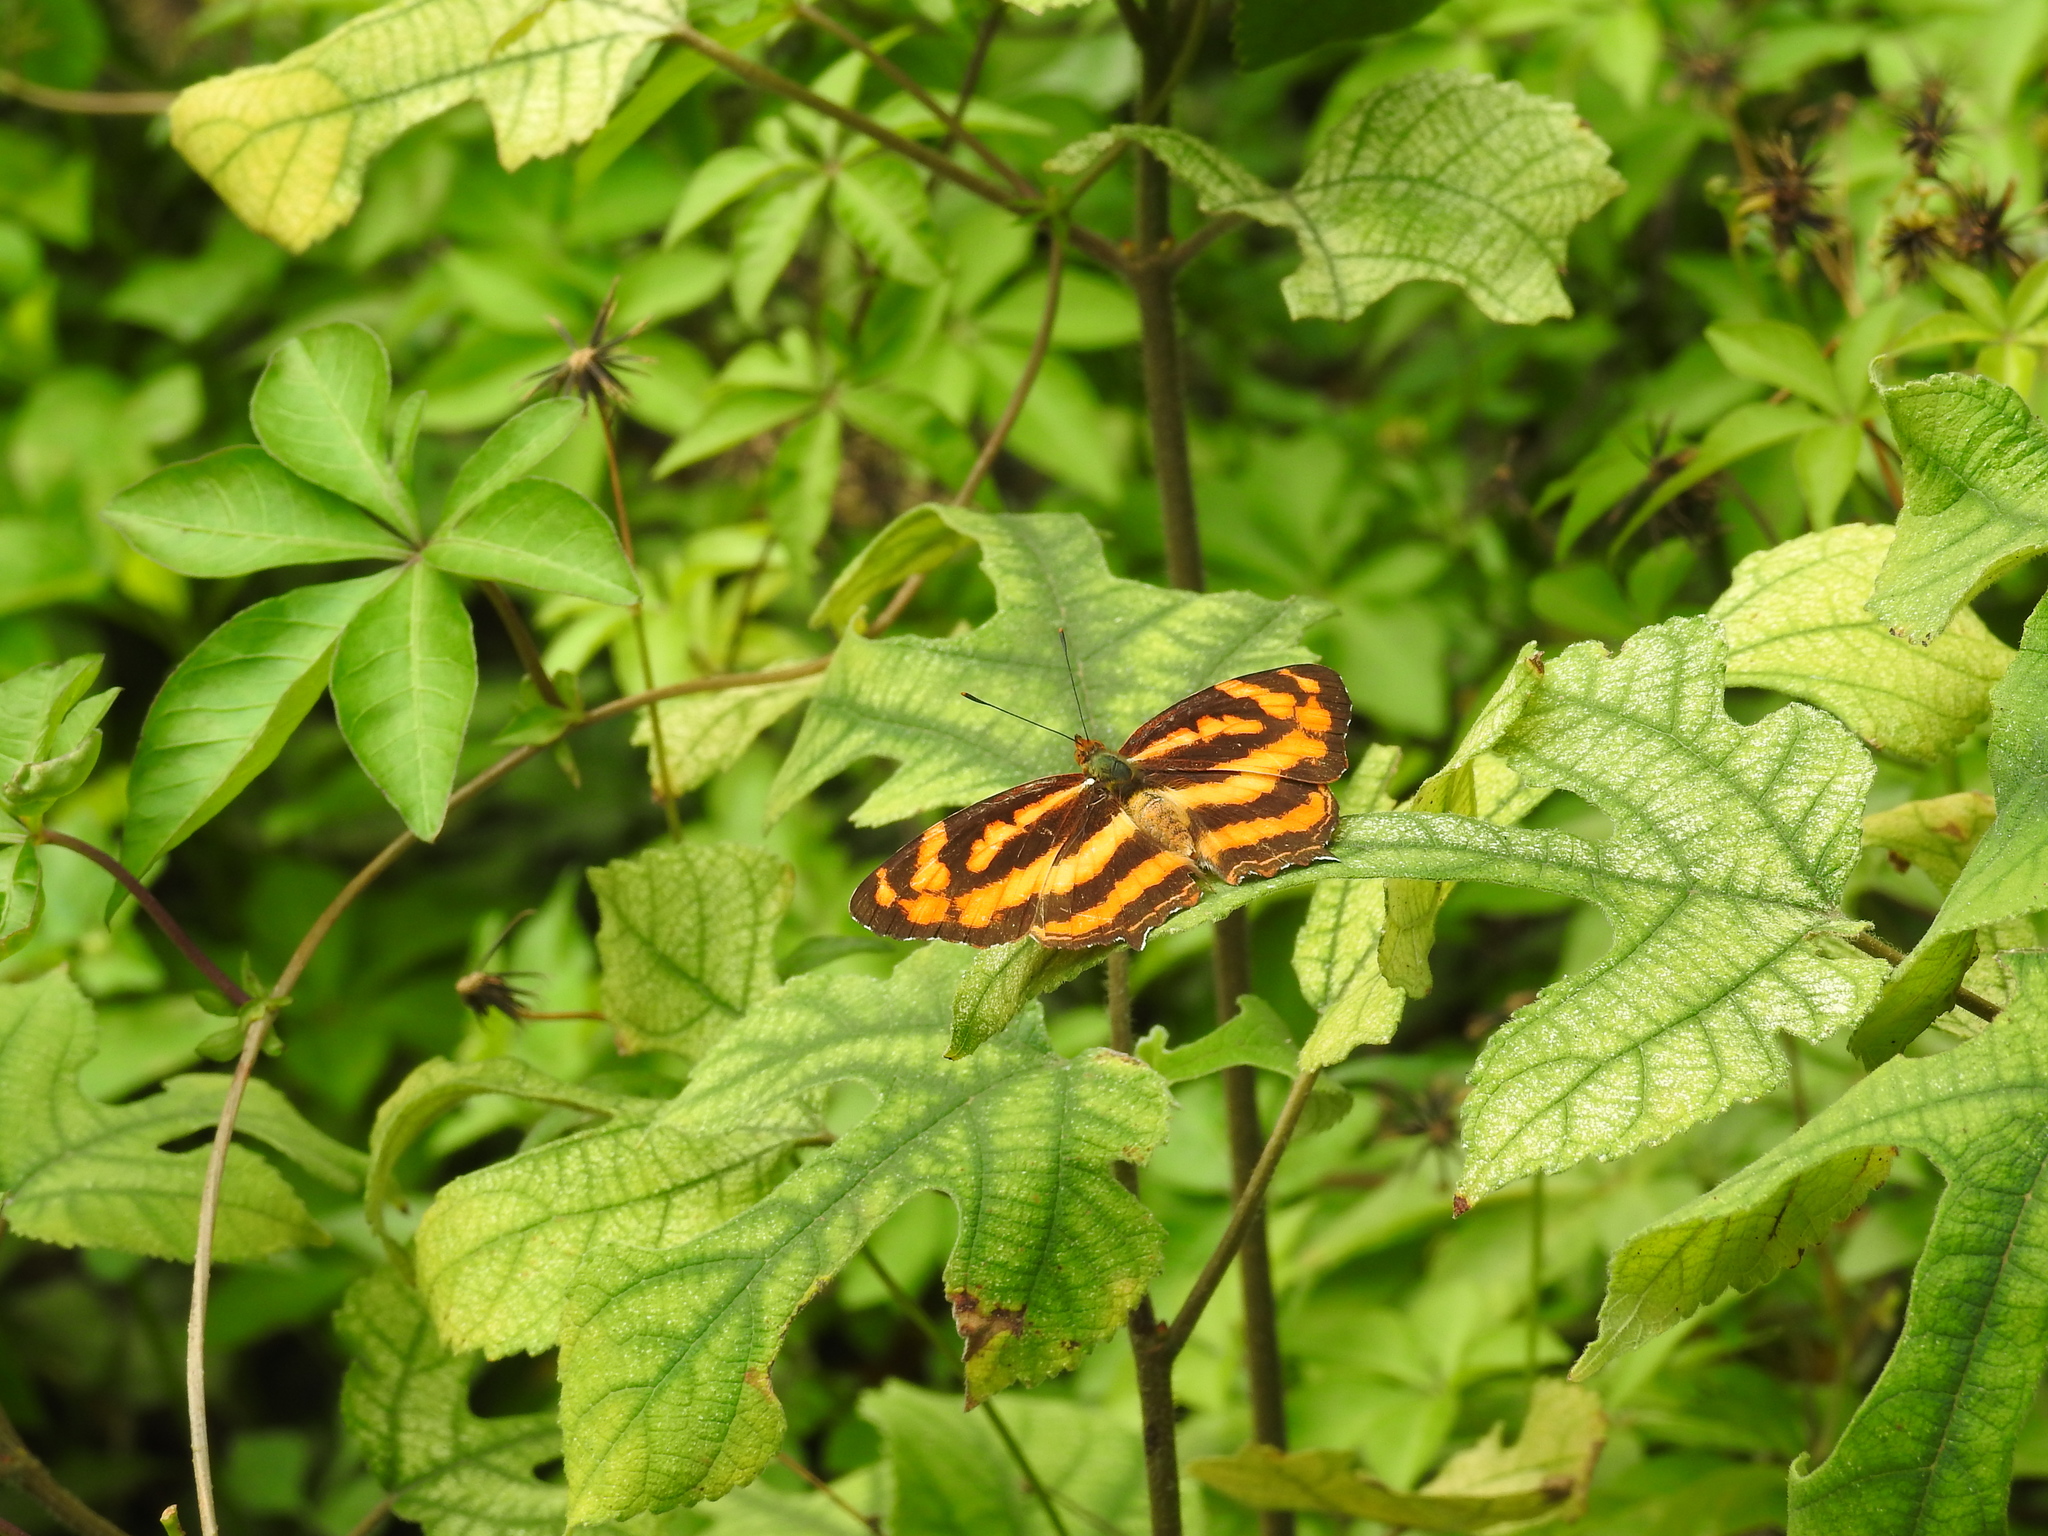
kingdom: Animalia
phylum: Arthropoda
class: Insecta
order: Lepidoptera
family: Nymphalidae
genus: Symbrenthia
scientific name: Symbrenthia hypselis
